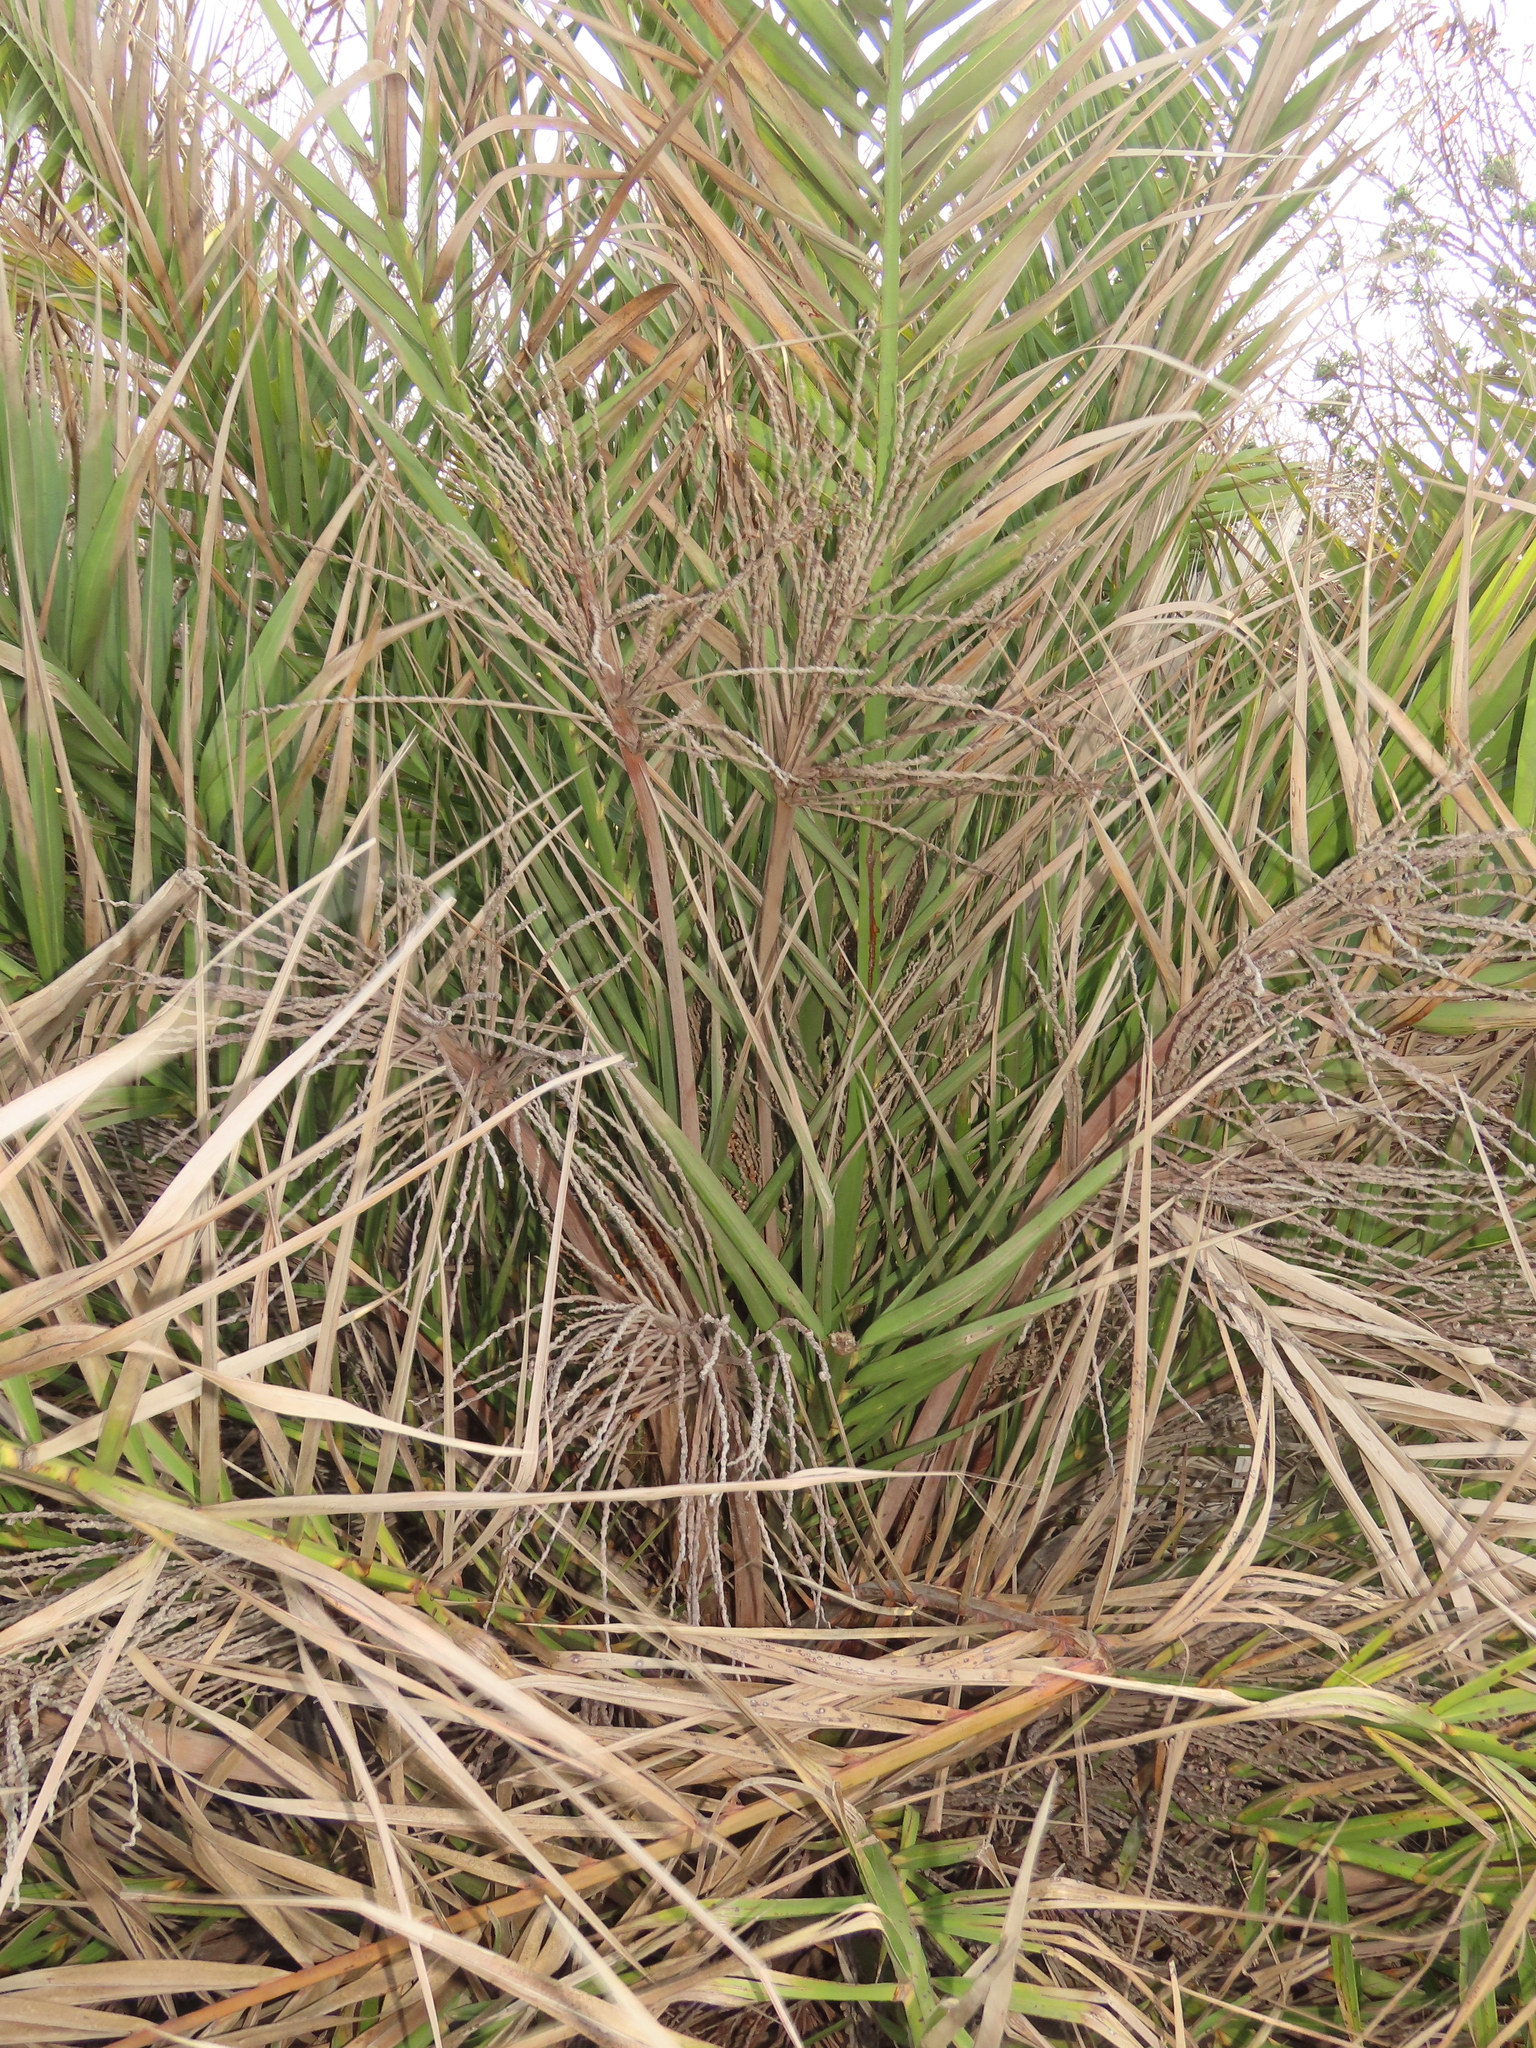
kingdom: Plantae
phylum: Tracheophyta
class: Liliopsida
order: Arecales
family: Arecaceae
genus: Phoenix
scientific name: Phoenix loureiroi
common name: Loureiro's palm
